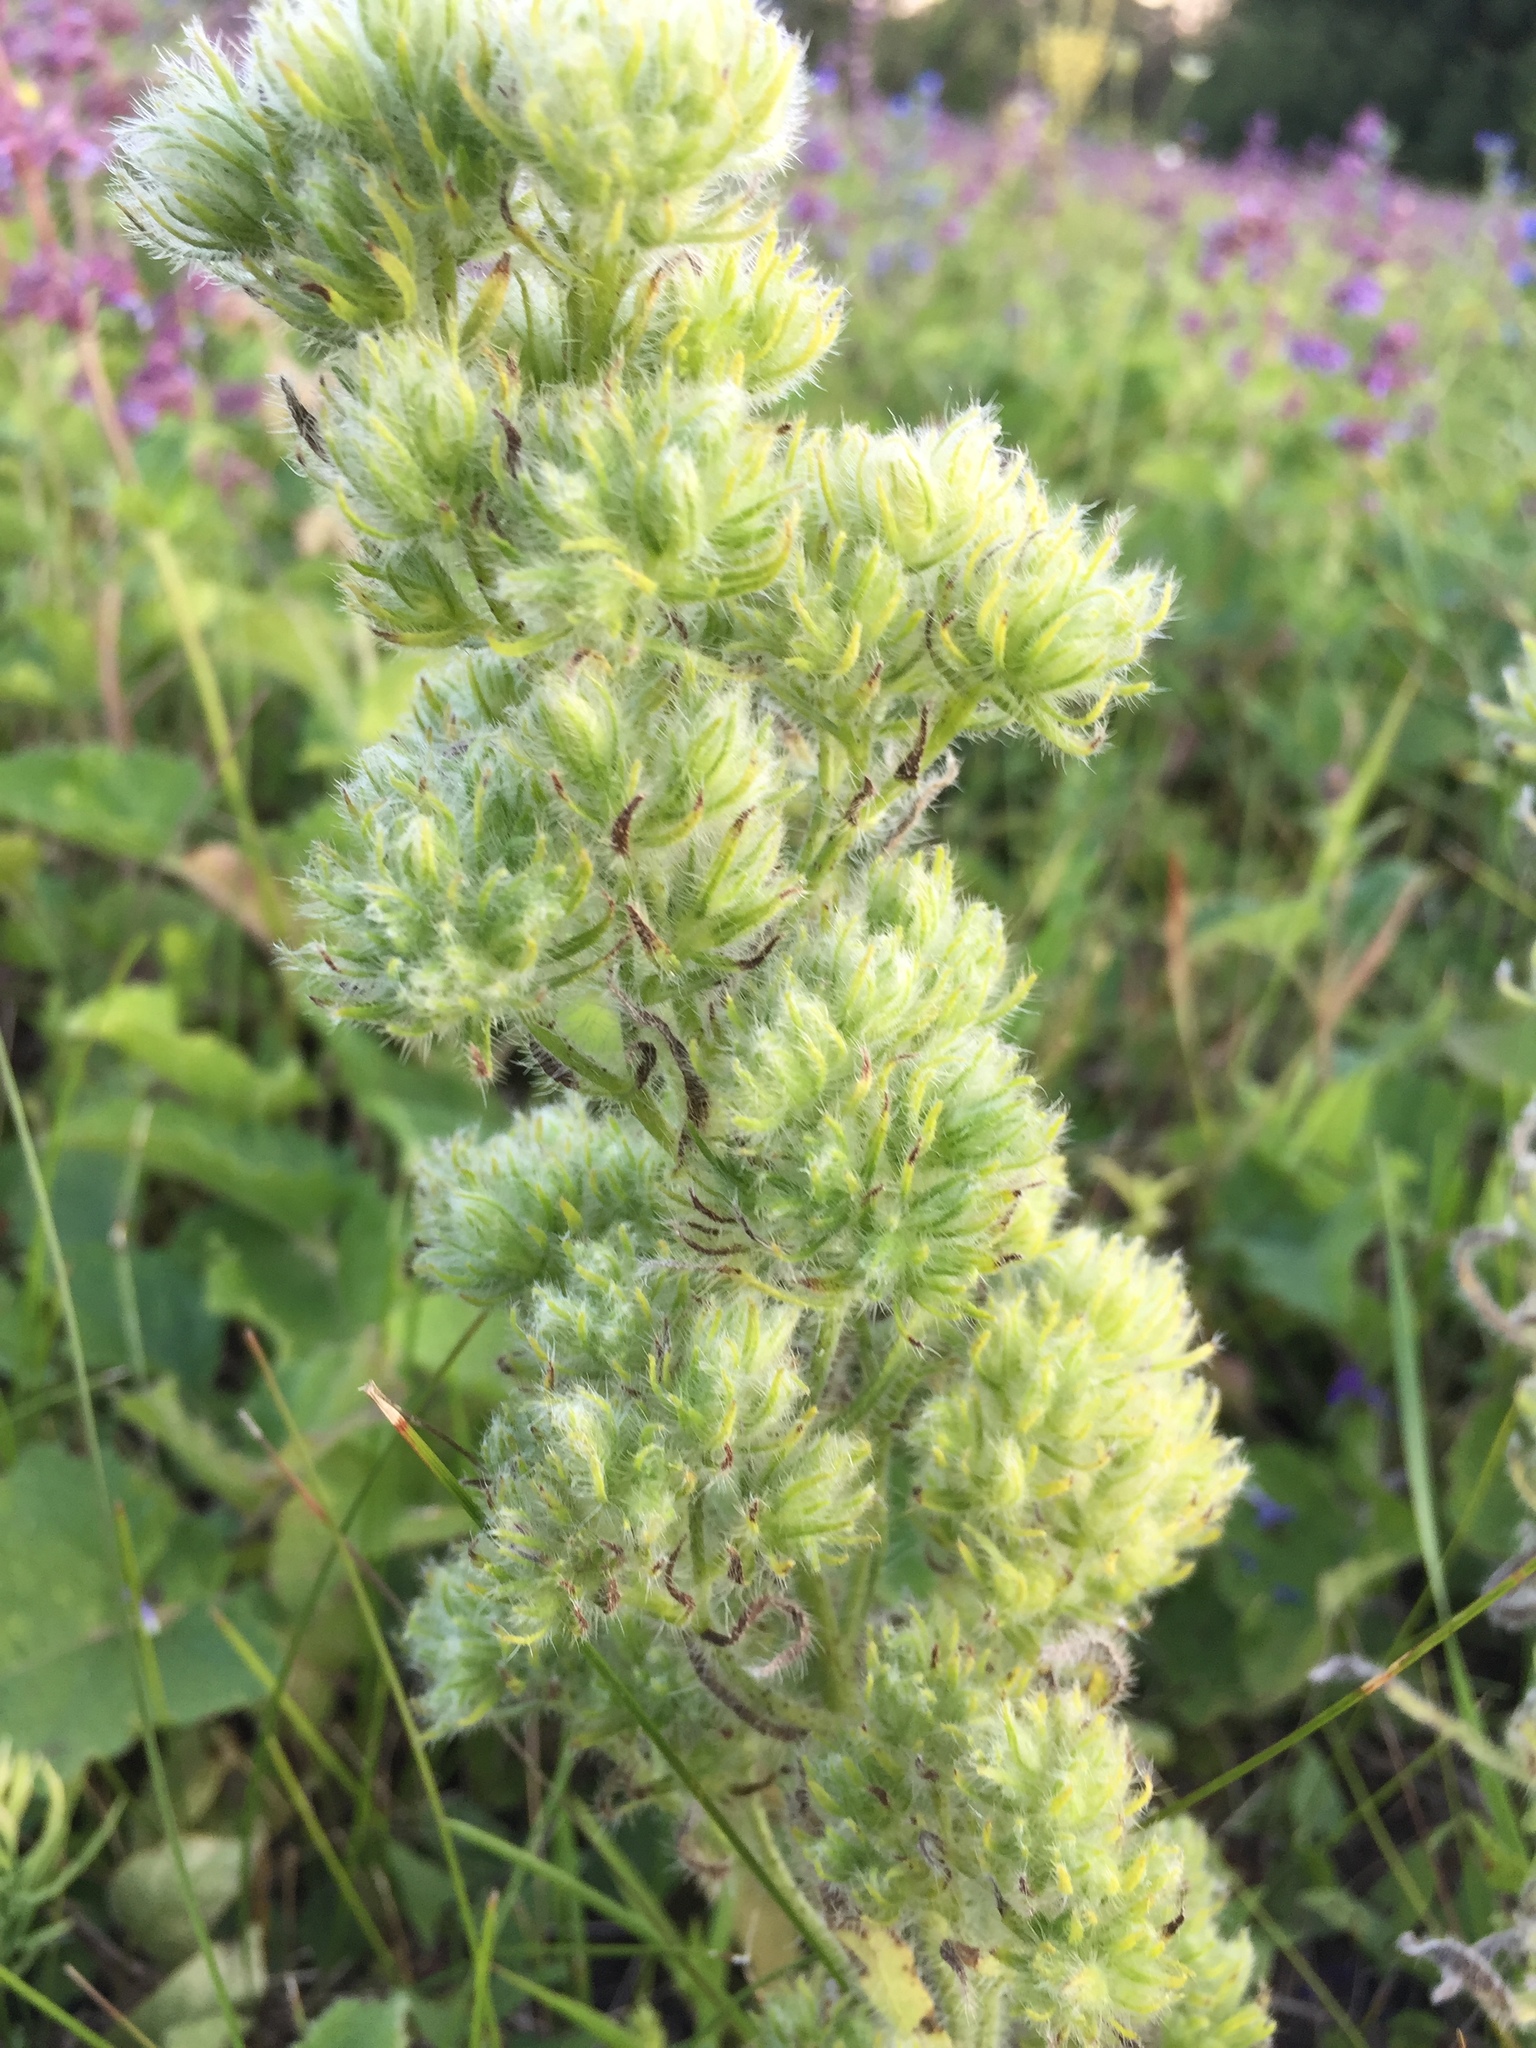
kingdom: Plantae
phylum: Tracheophyta
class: Magnoliopsida
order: Boraginales
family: Boraginaceae
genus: Echium
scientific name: Echium vulgare
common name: Common viper's bugloss
